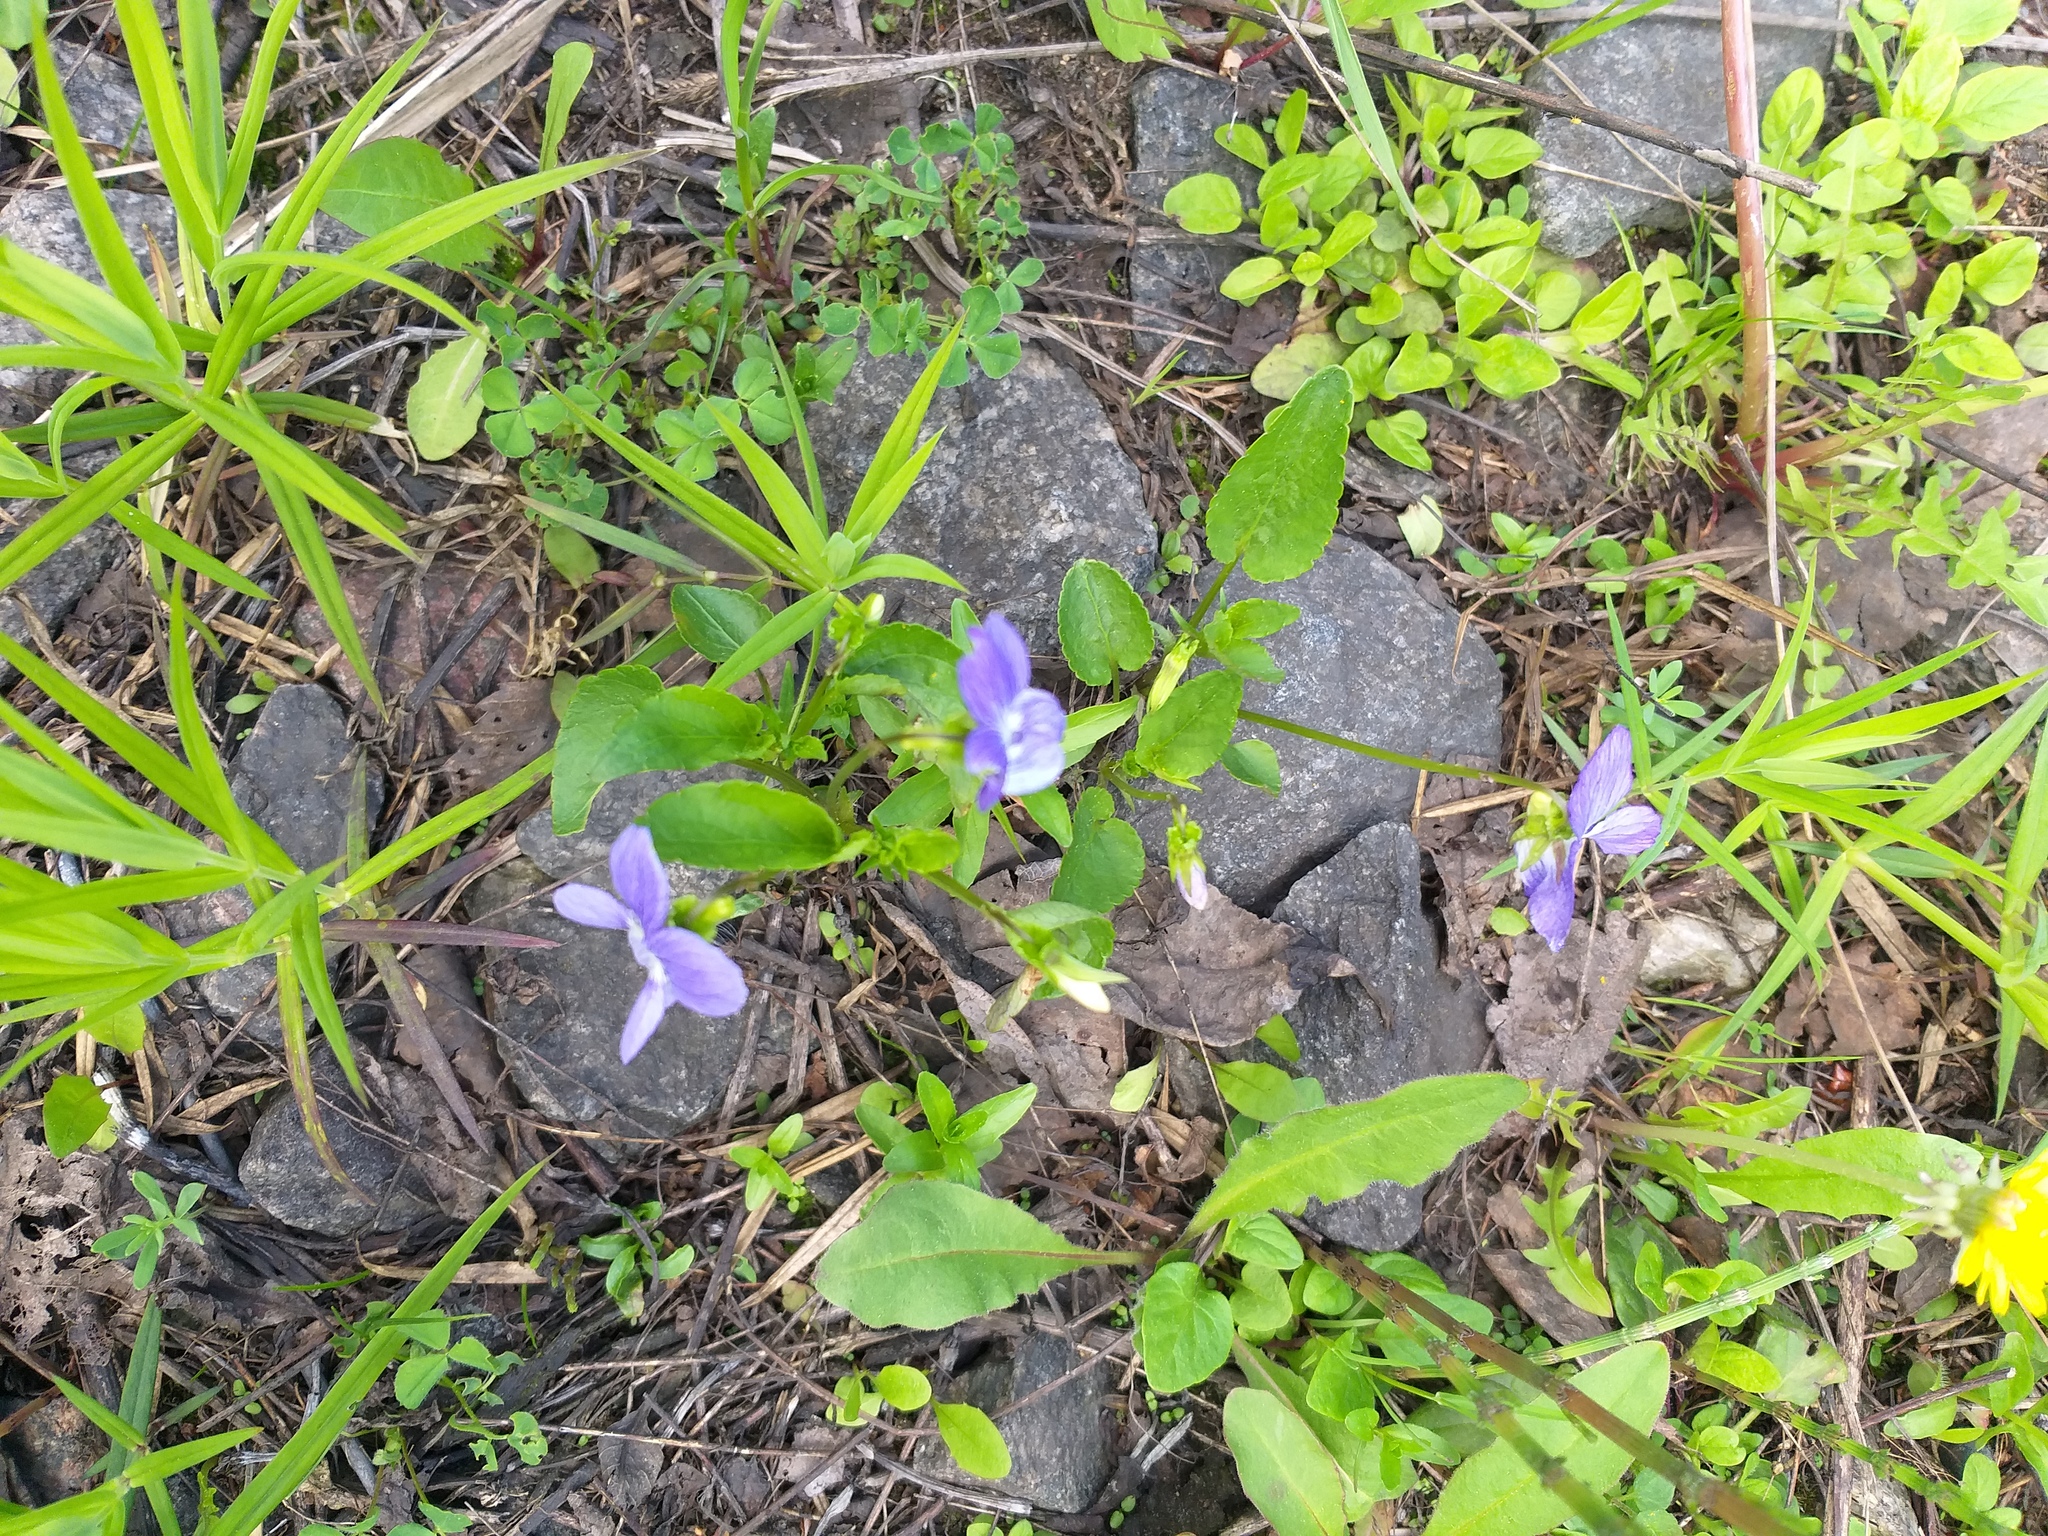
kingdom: Plantae
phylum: Tracheophyta
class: Magnoliopsida
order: Malpighiales
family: Violaceae
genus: Viola
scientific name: Viola canina
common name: Heath dog-violet
